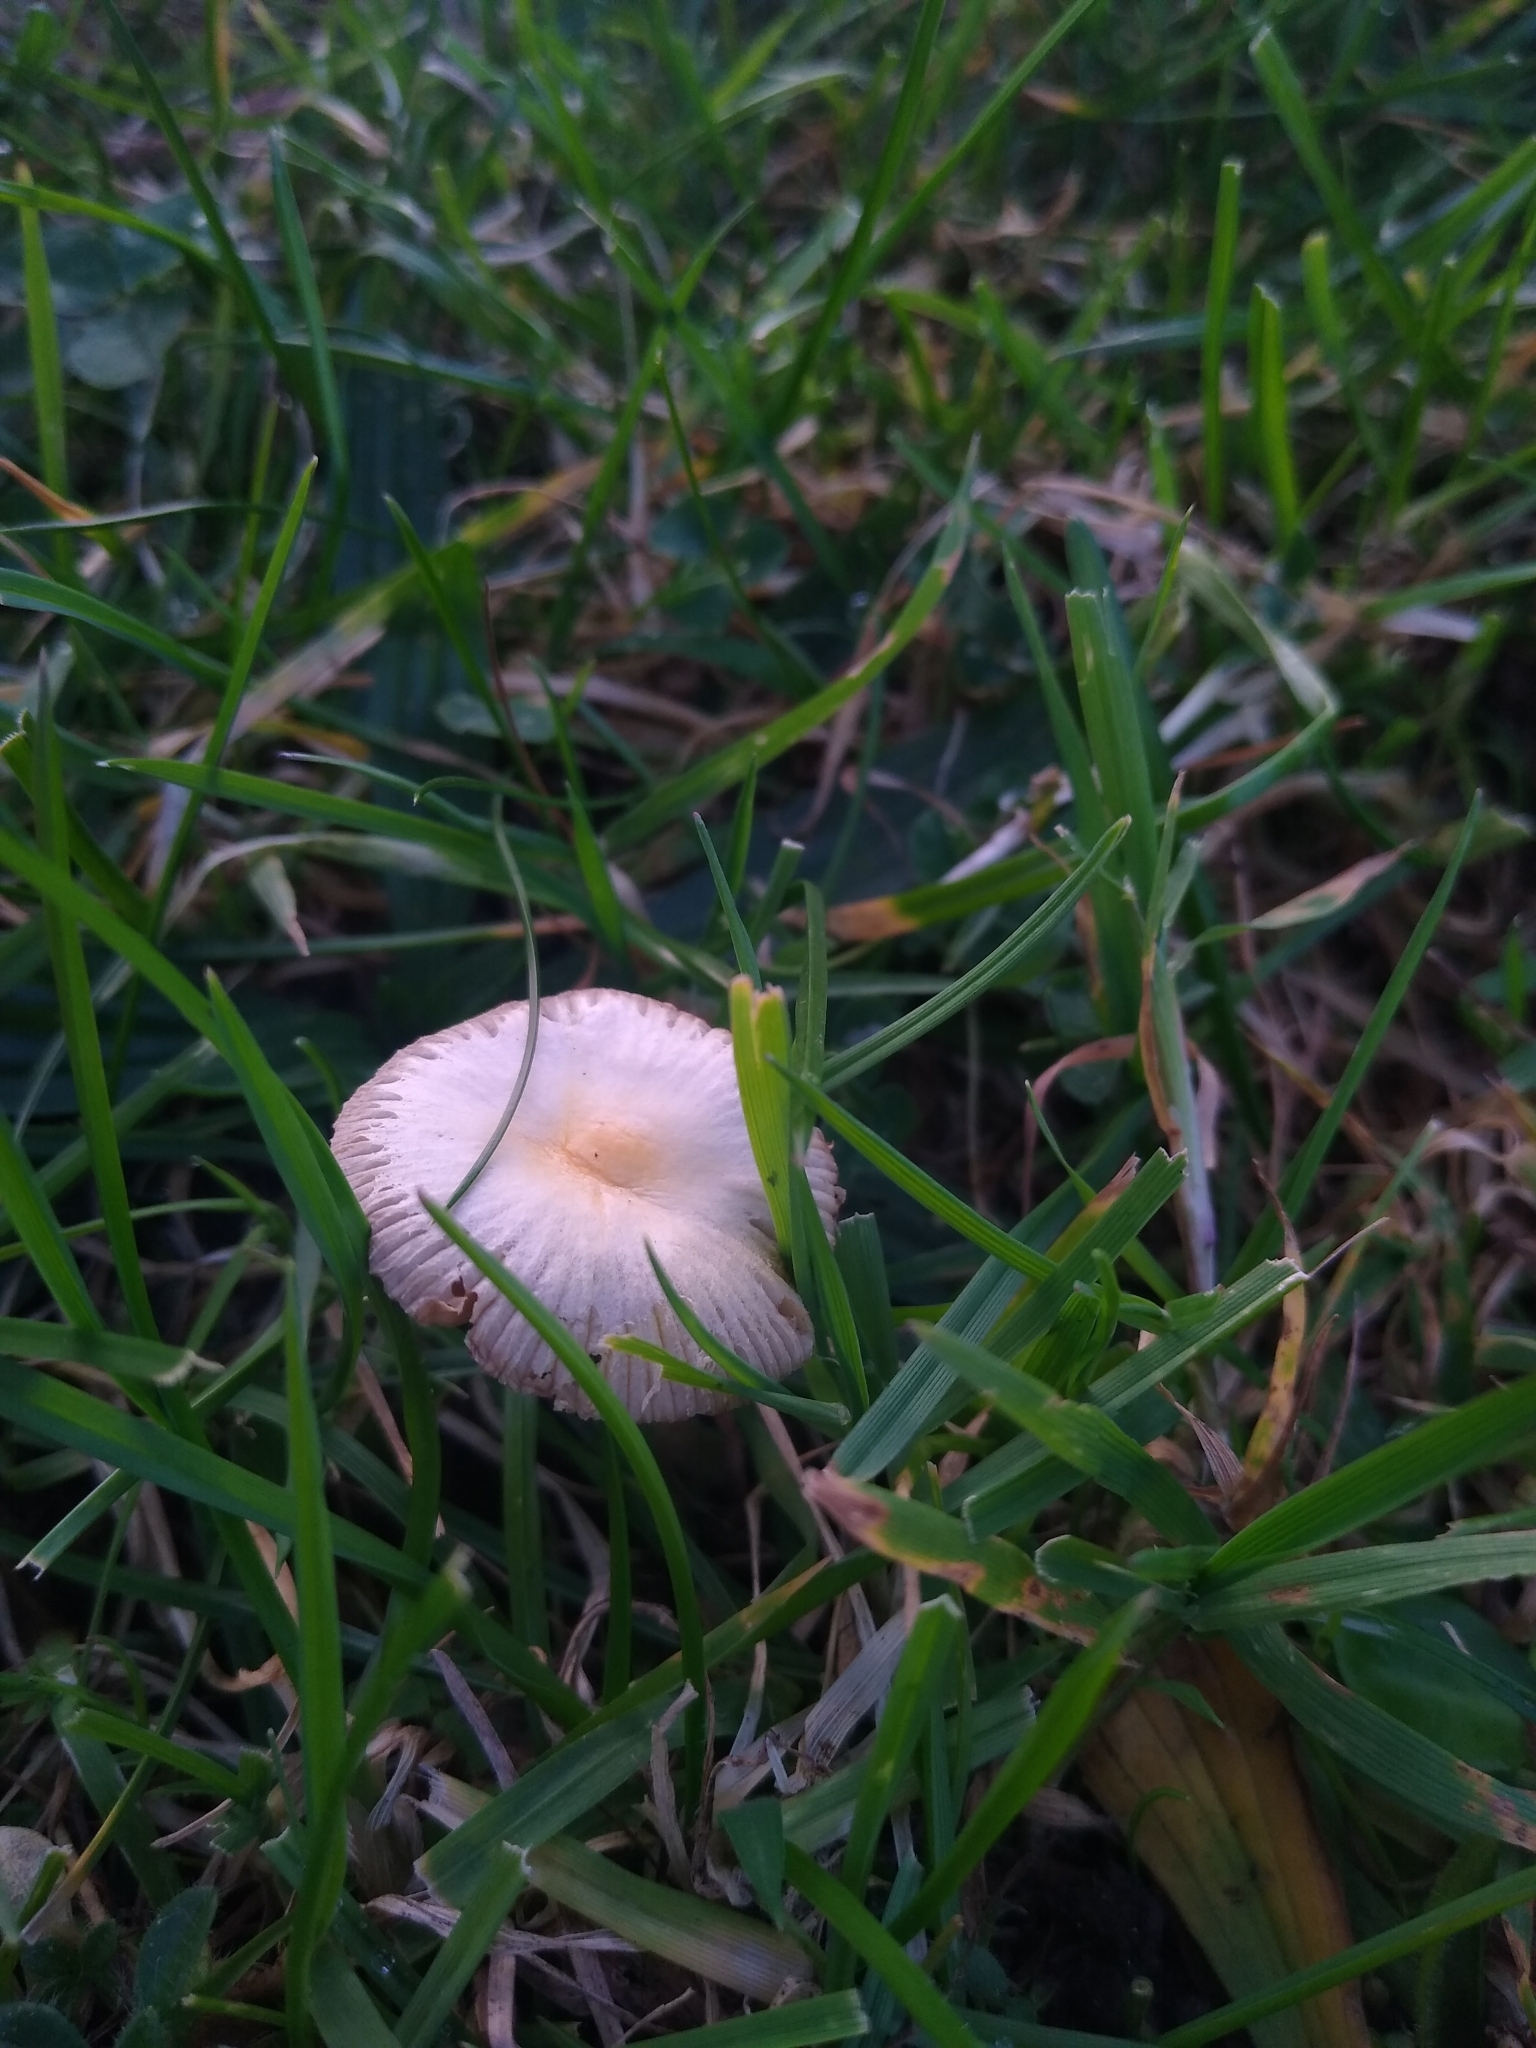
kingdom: Fungi
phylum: Basidiomycota
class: Agaricomycetes
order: Agaricales
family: Bolbitiaceae
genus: Bolbitius
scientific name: Bolbitius titubans
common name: Yellow fieldcap
